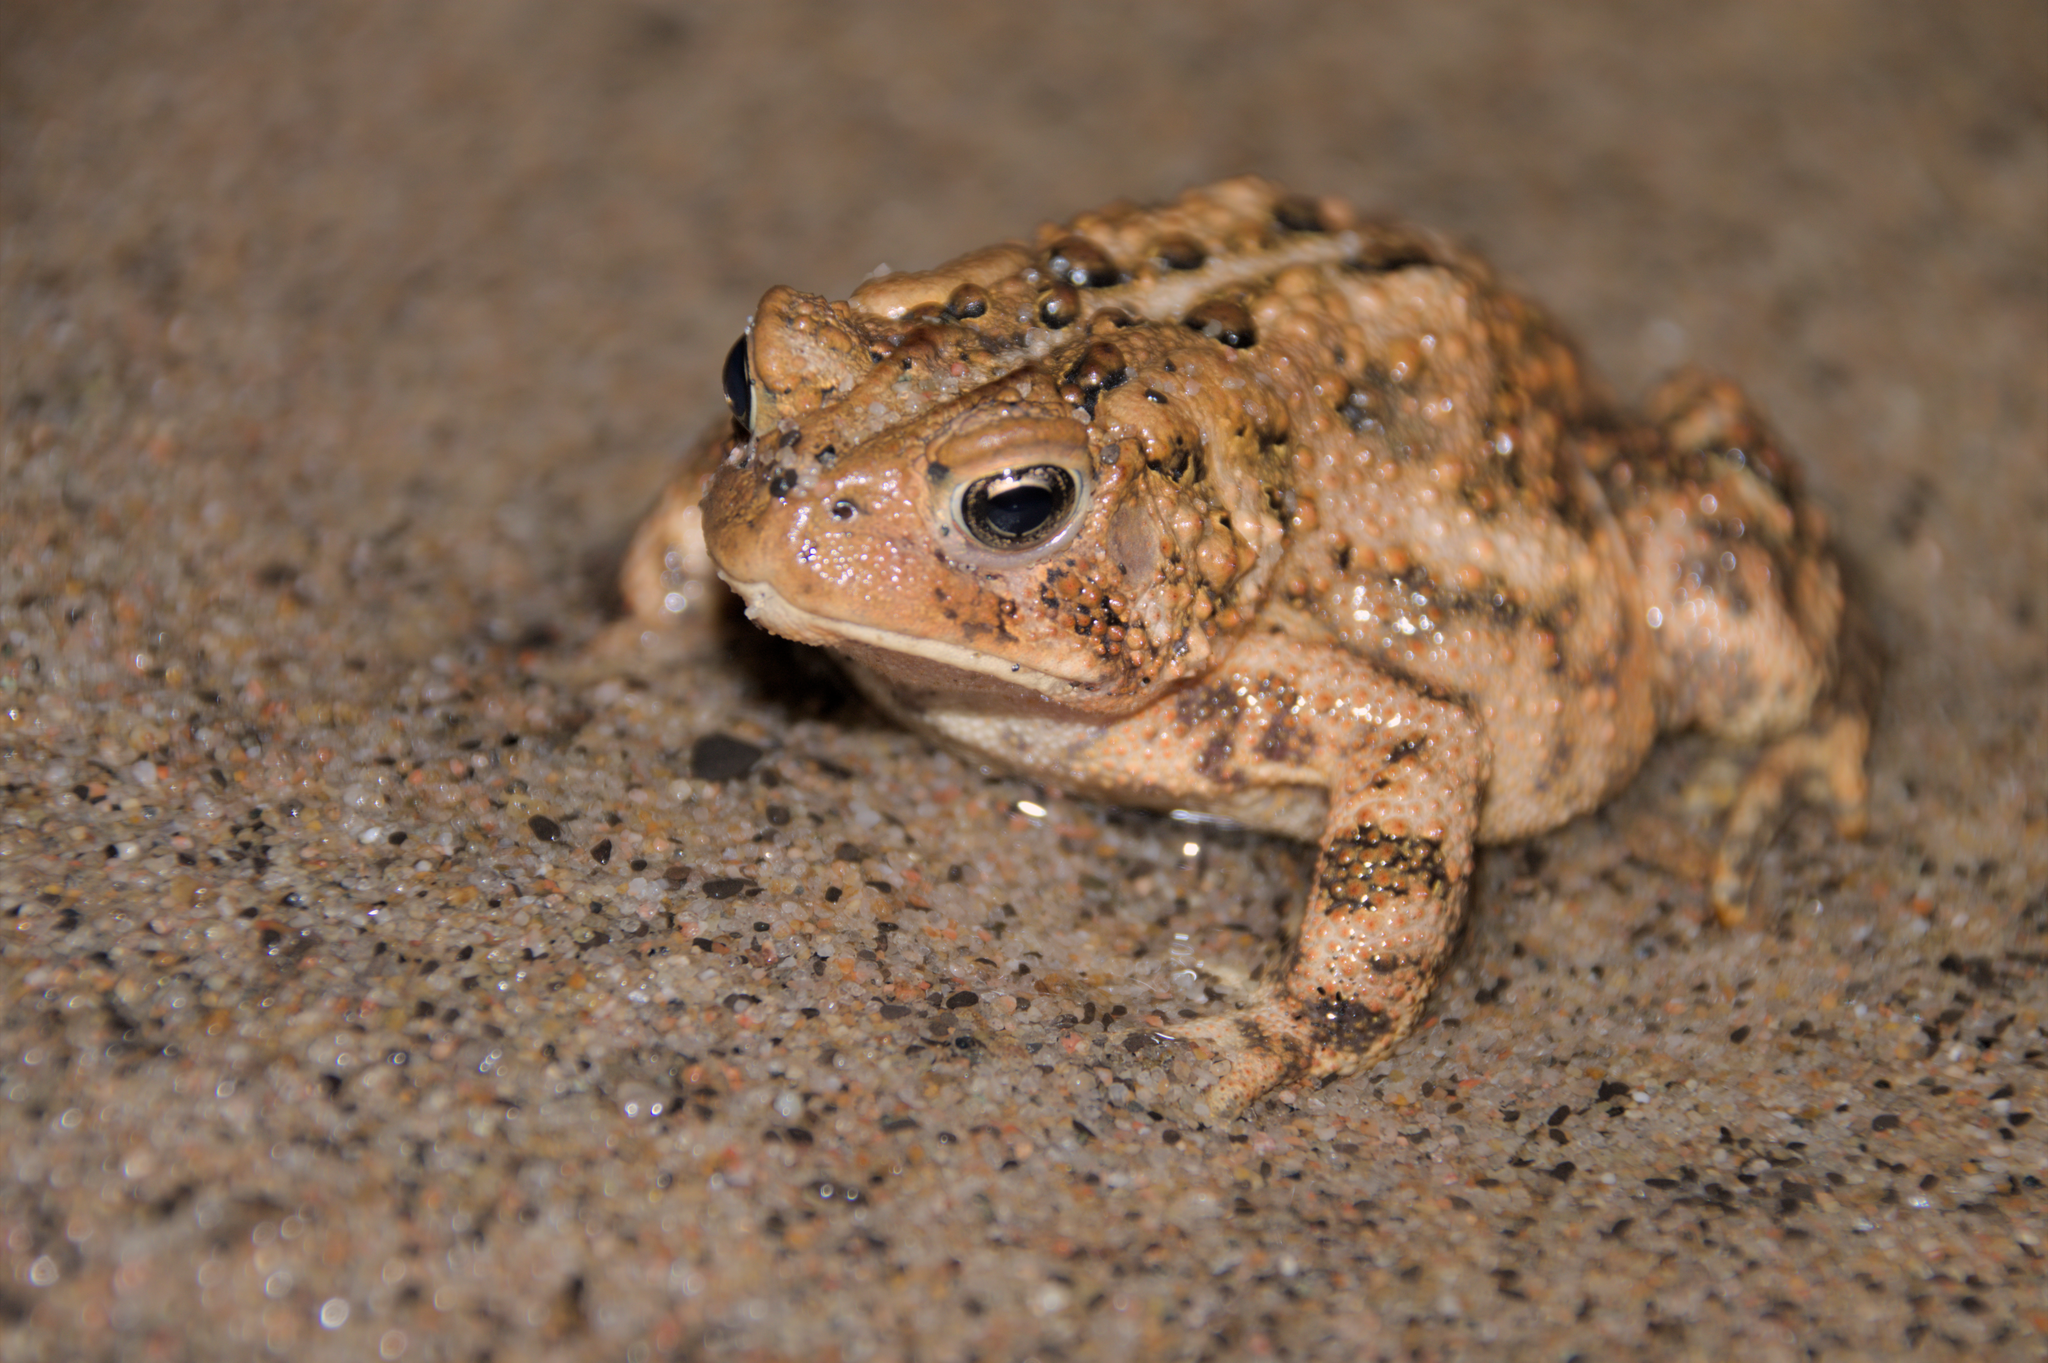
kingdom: Animalia
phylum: Chordata
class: Amphibia
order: Anura
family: Bufonidae
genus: Anaxyrus
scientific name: Anaxyrus americanus
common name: American toad
